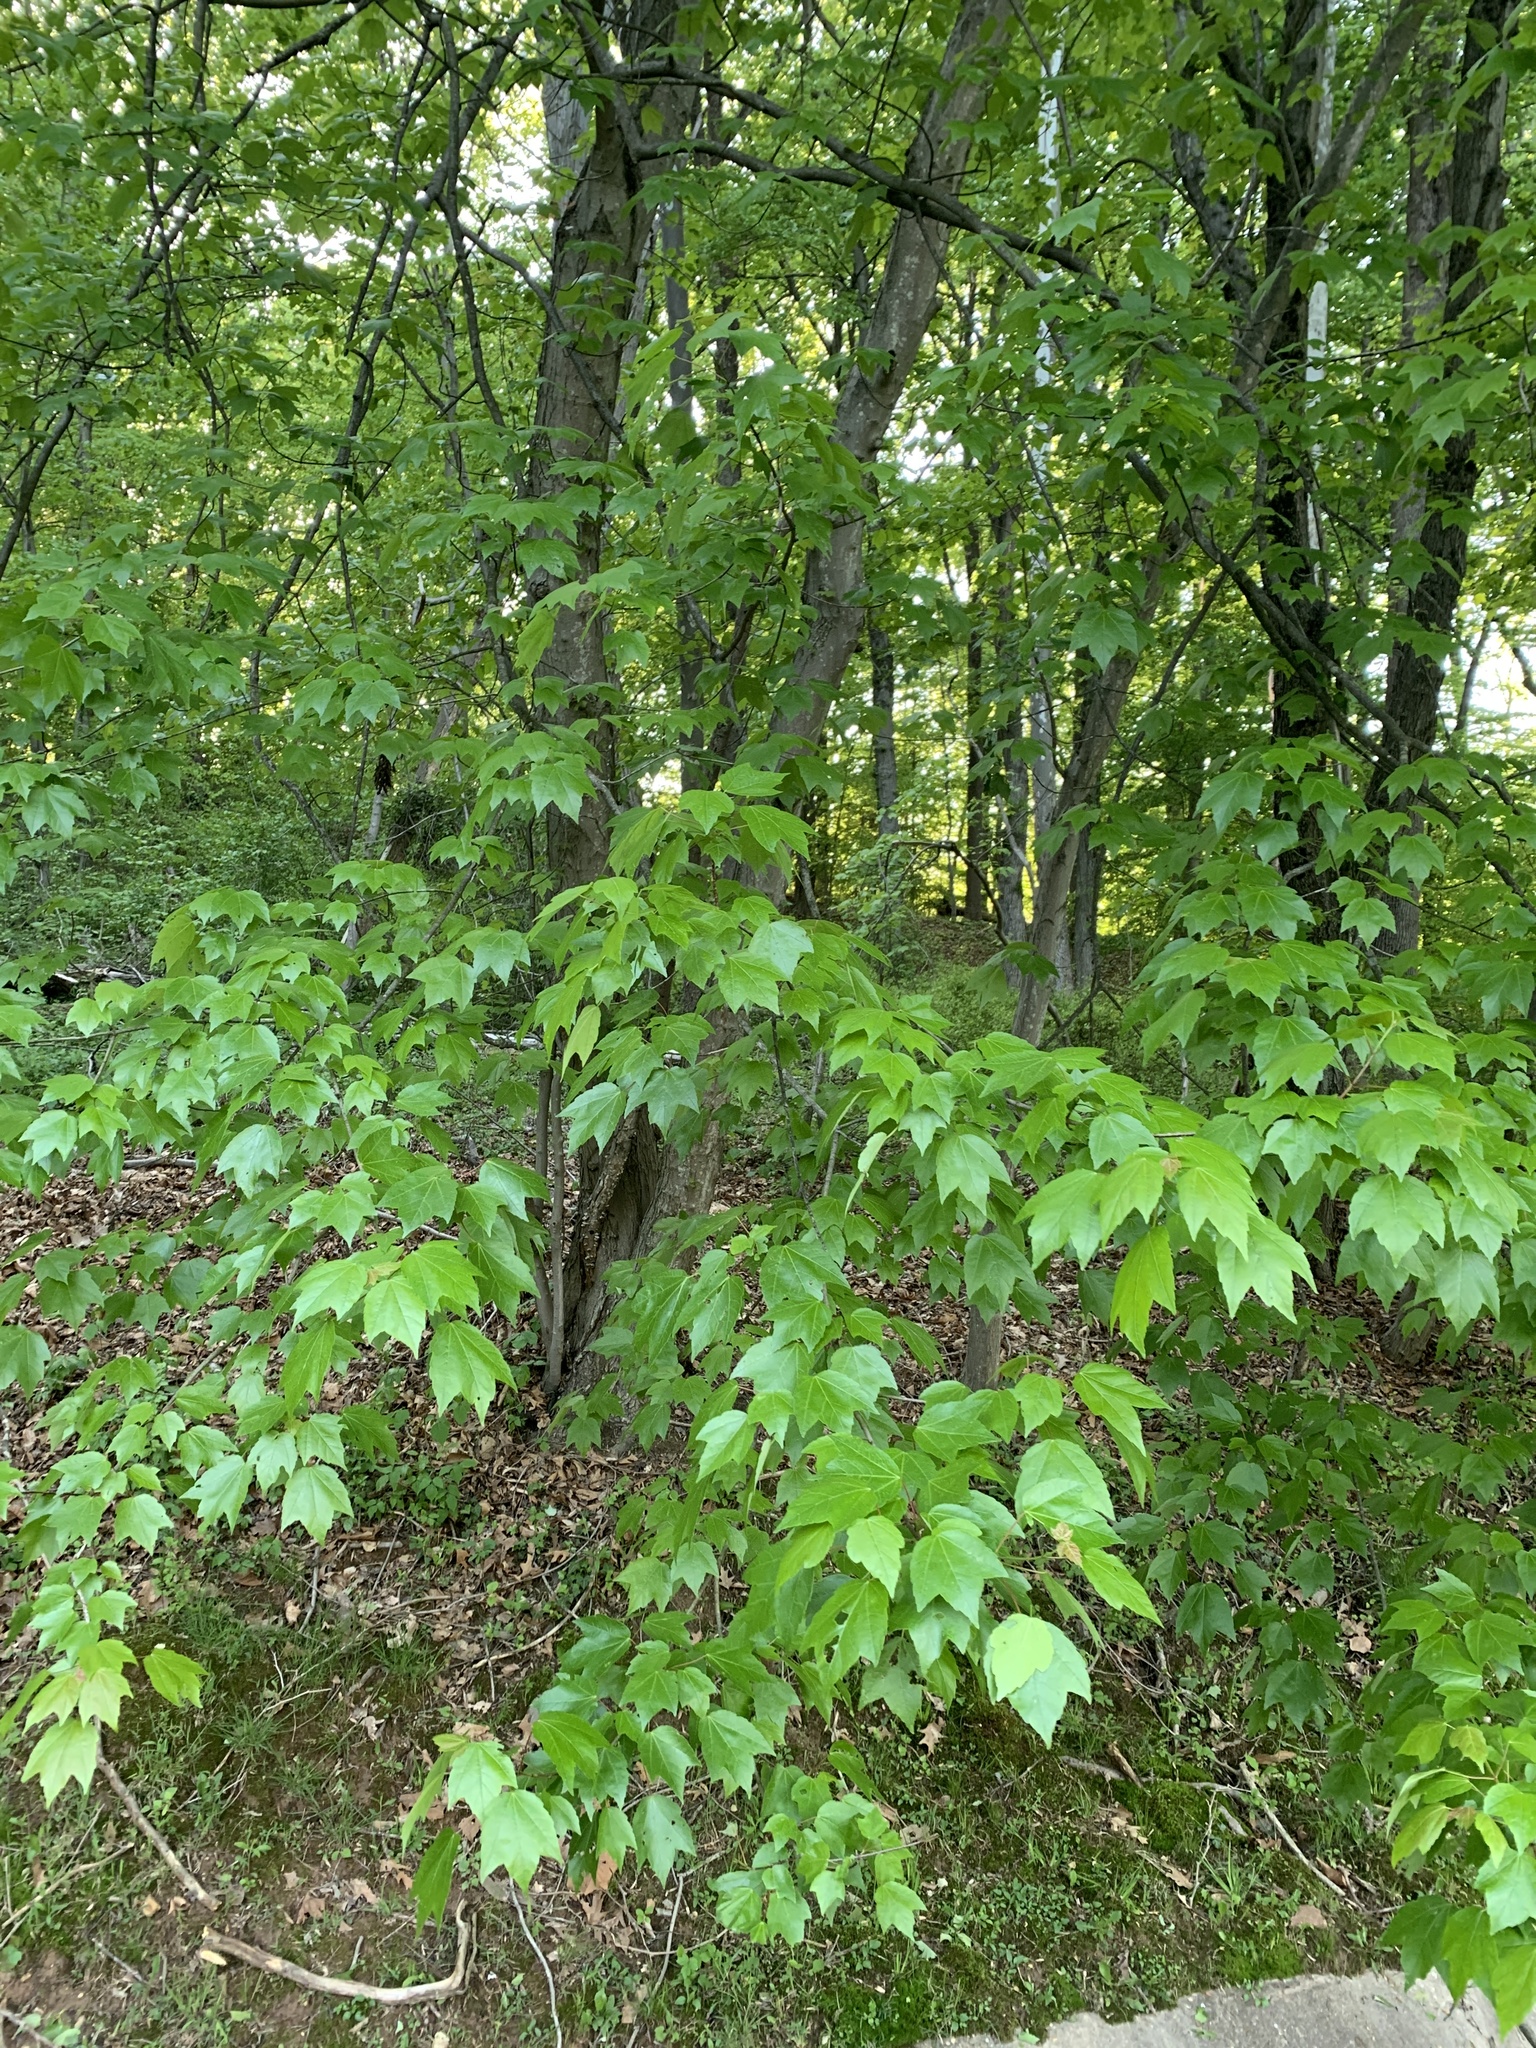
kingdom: Plantae
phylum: Tracheophyta
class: Magnoliopsida
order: Sapindales
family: Sapindaceae
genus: Acer
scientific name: Acer rubrum
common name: Red maple
